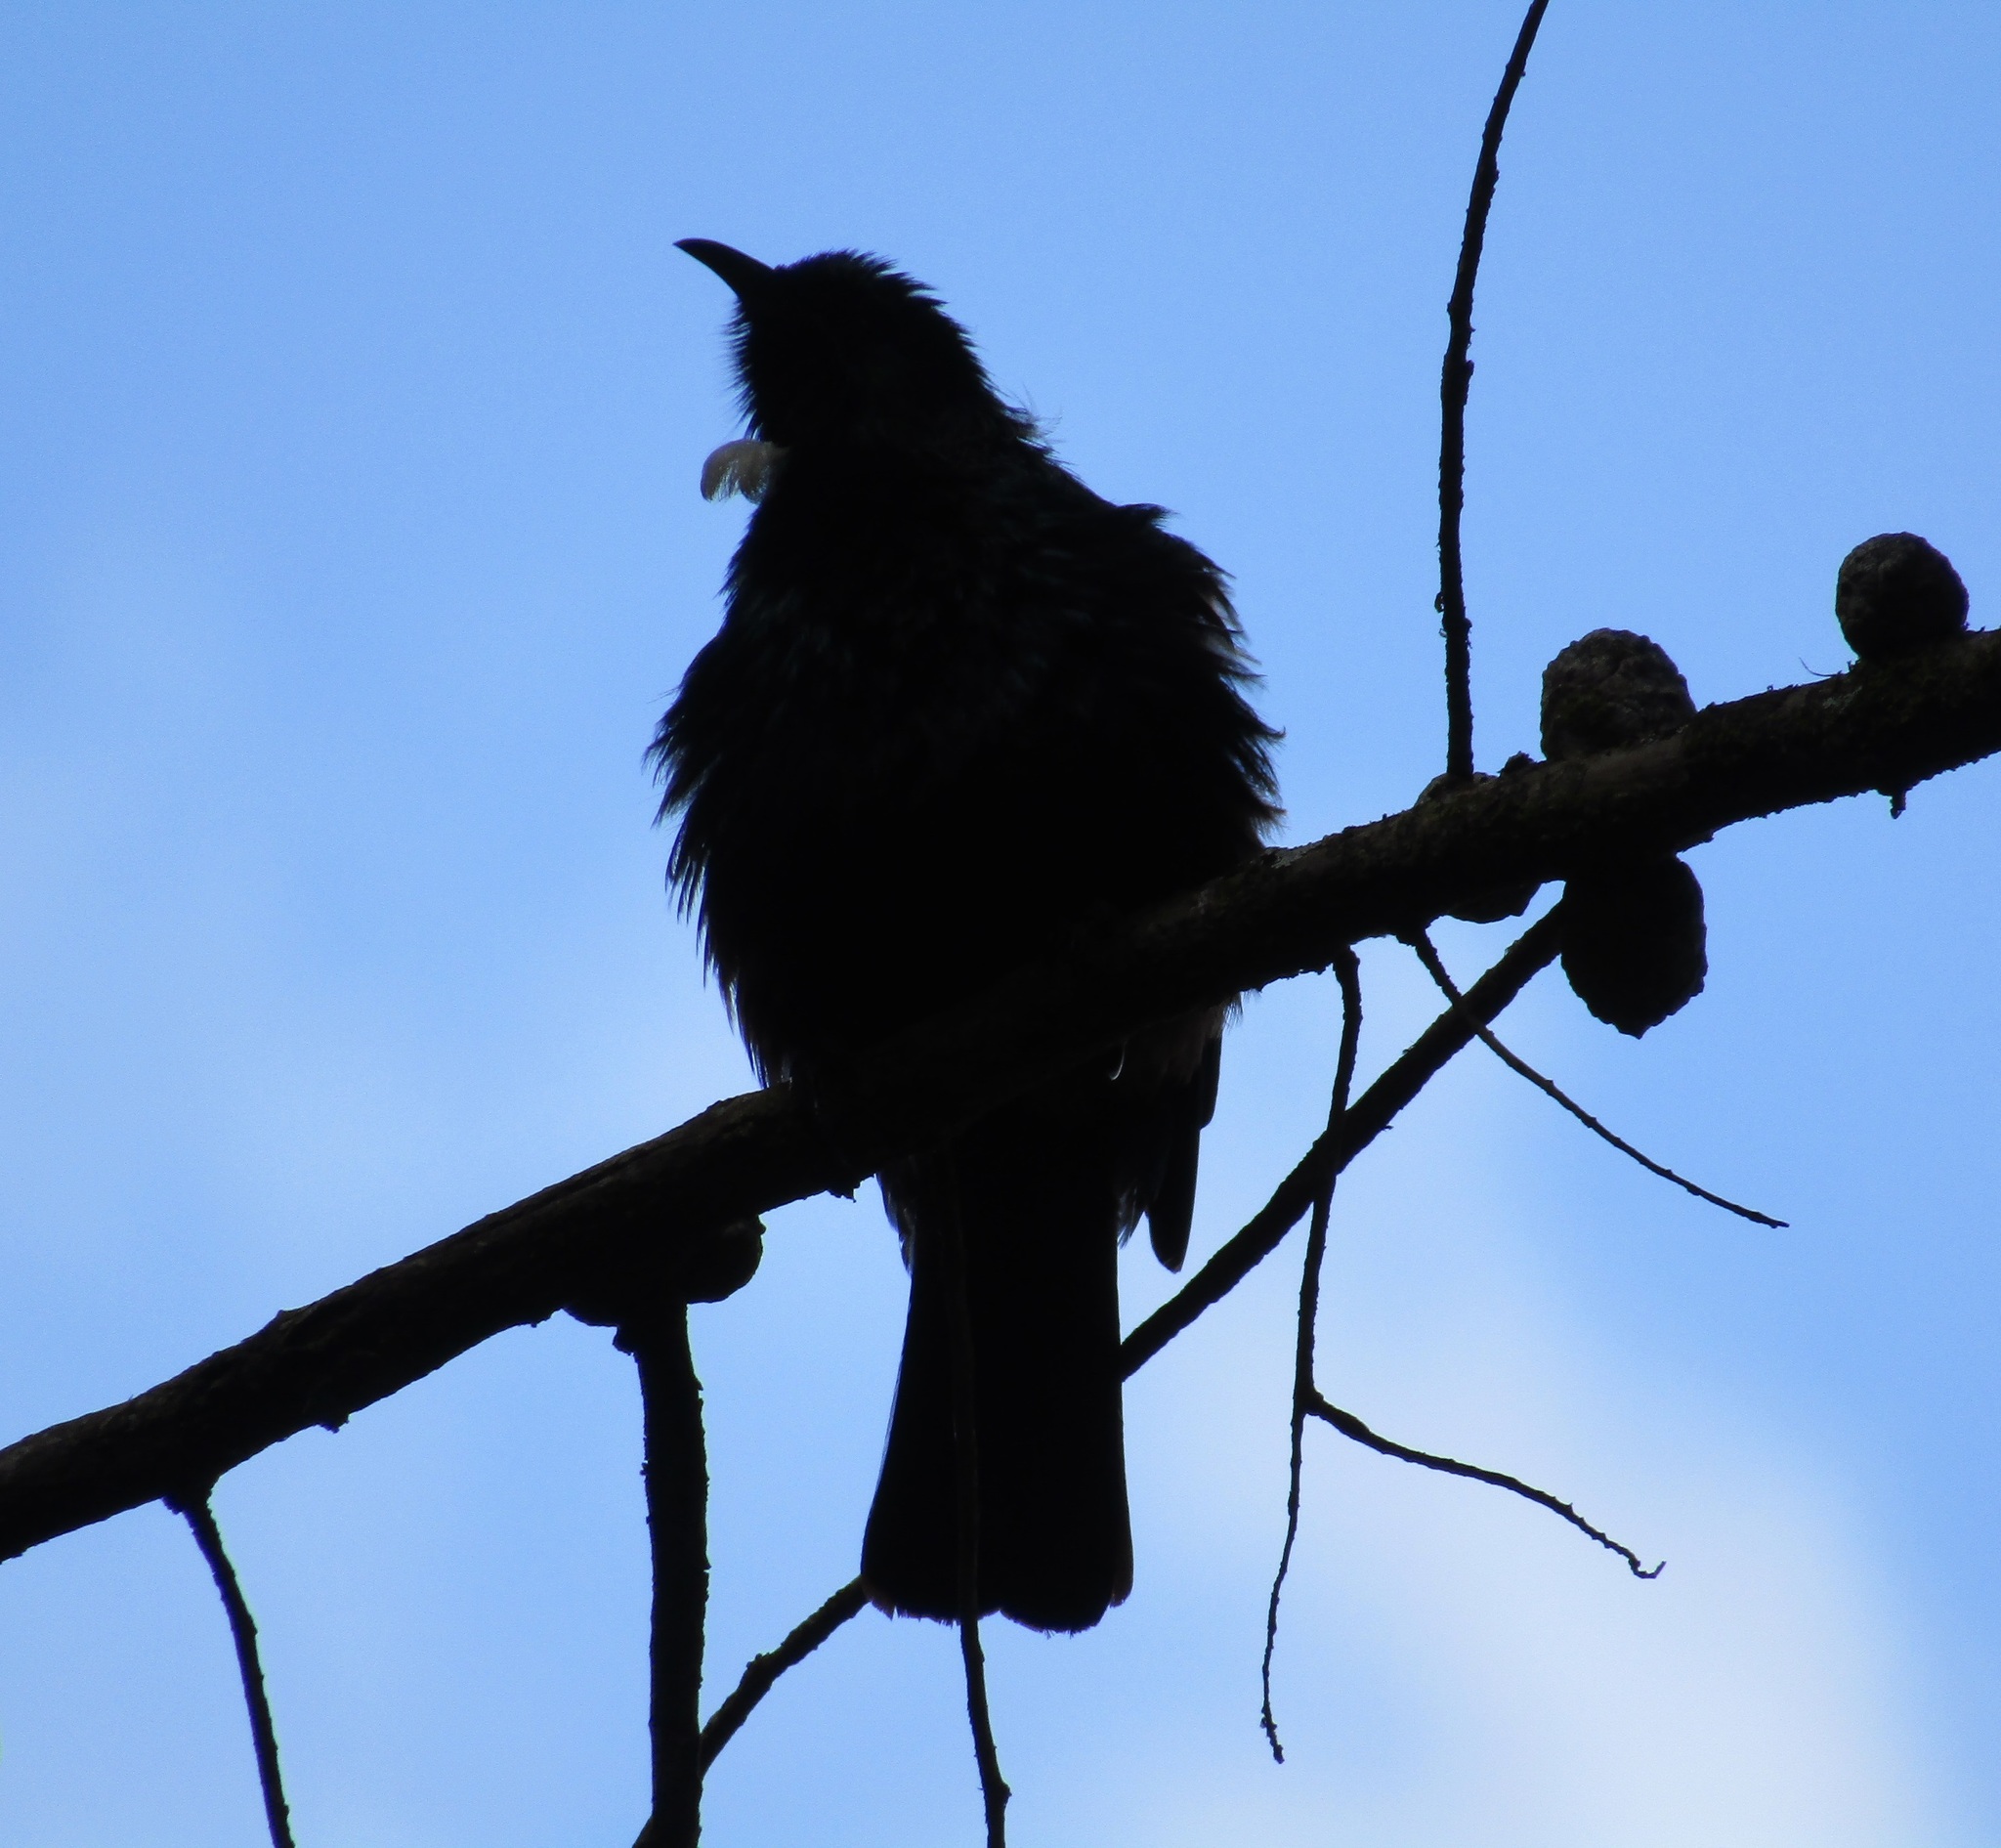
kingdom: Animalia
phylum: Chordata
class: Aves
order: Passeriformes
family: Meliphagidae
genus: Prosthemadera
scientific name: Prosthemadera novaeseelandiae
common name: Tui
